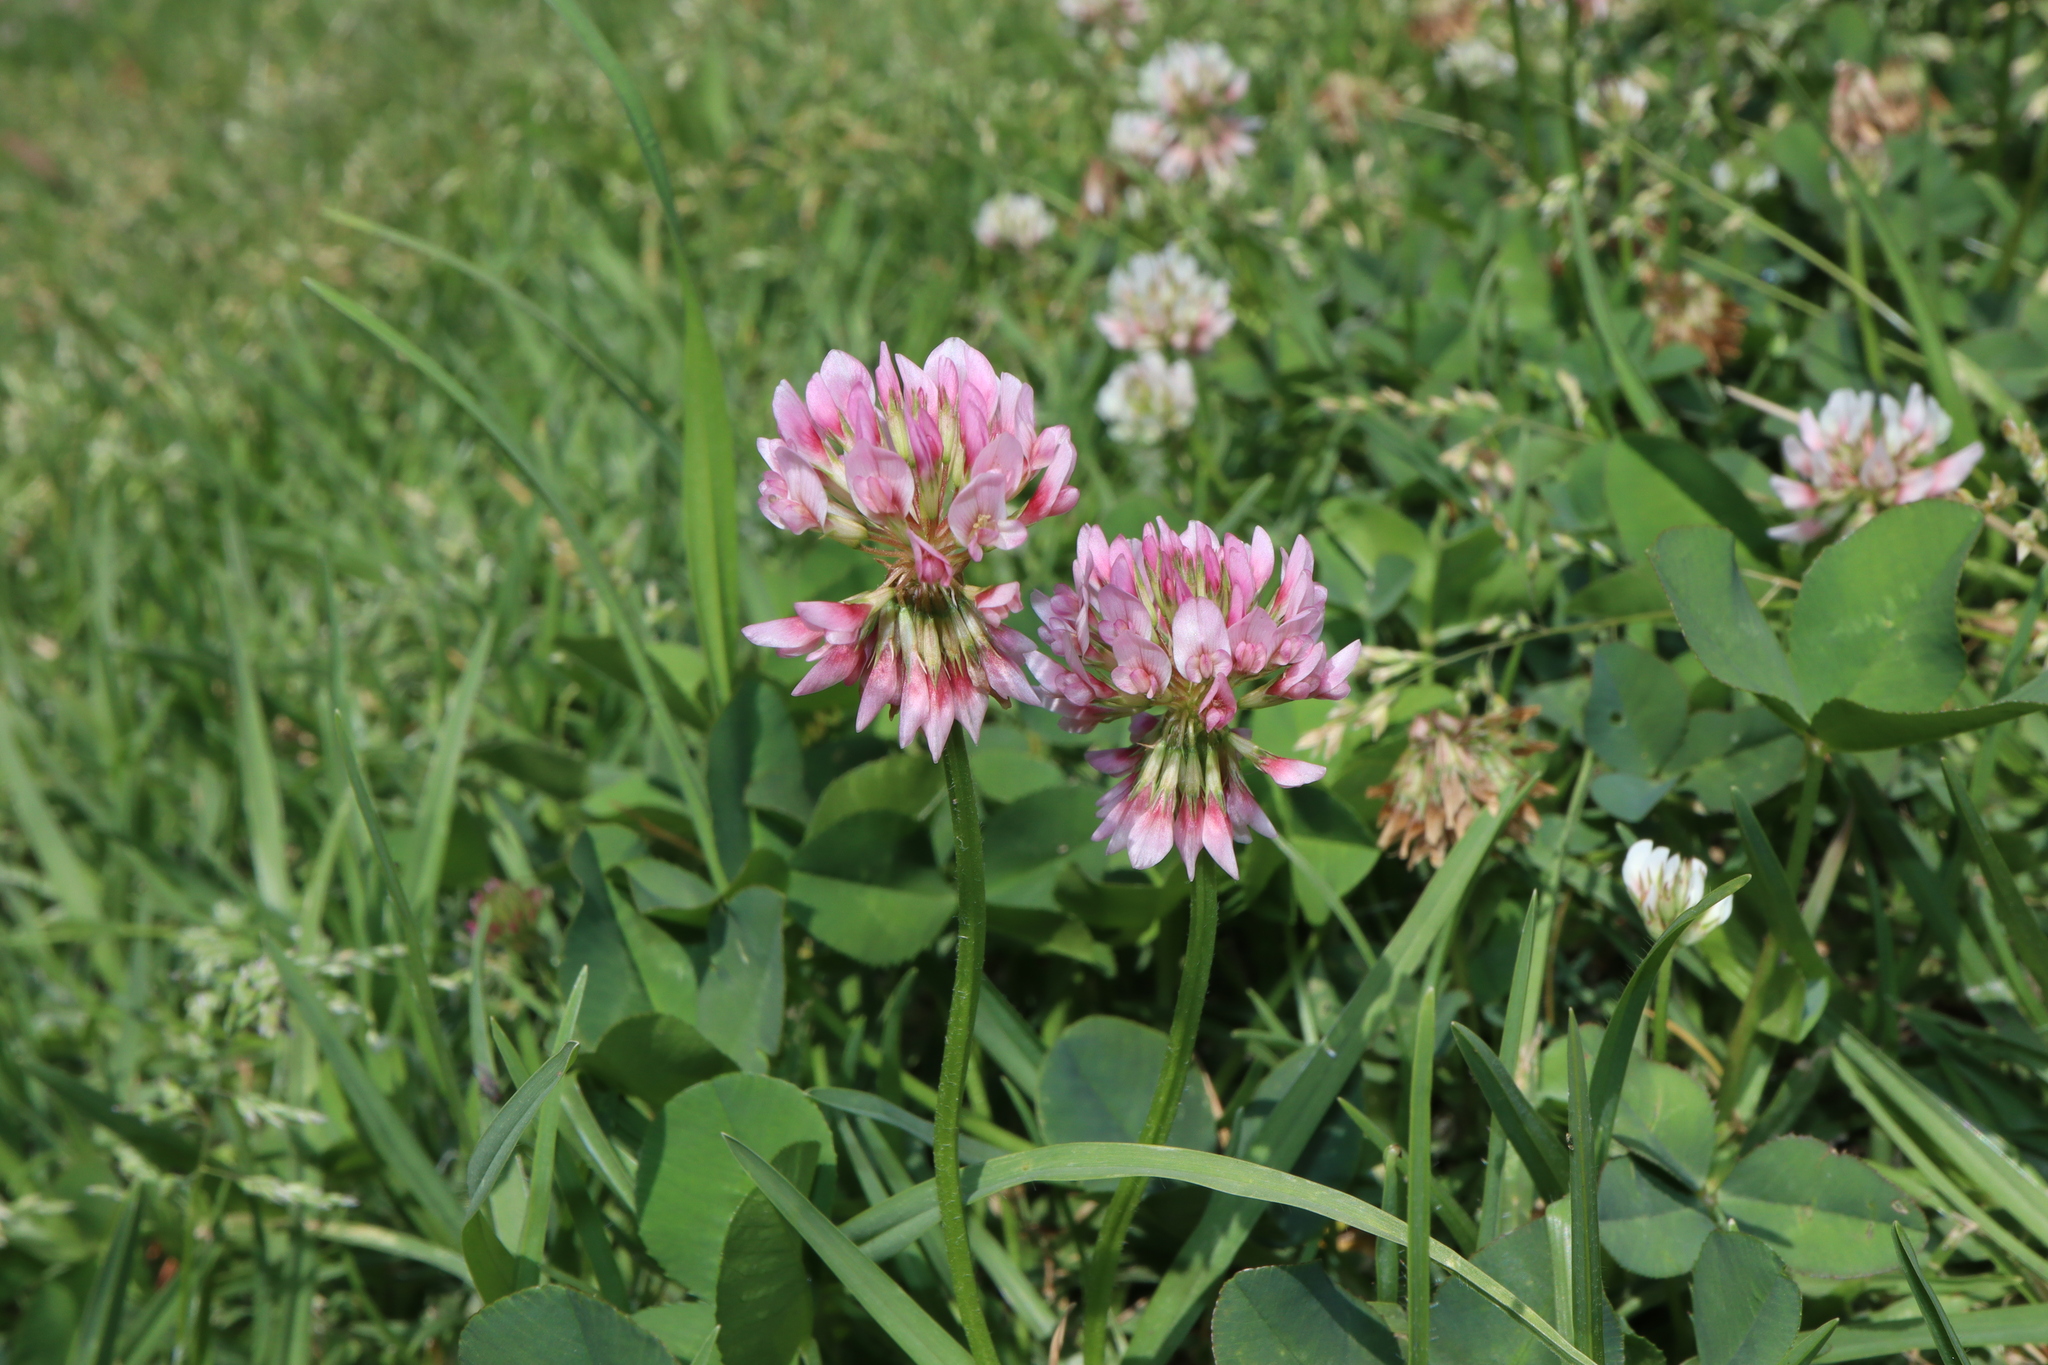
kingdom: Plantae
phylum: Tracheophyta
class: Magnoliopsida
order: Fabales
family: Fabaceae
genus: Trifolium
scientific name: Trifolium repens
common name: White clover
